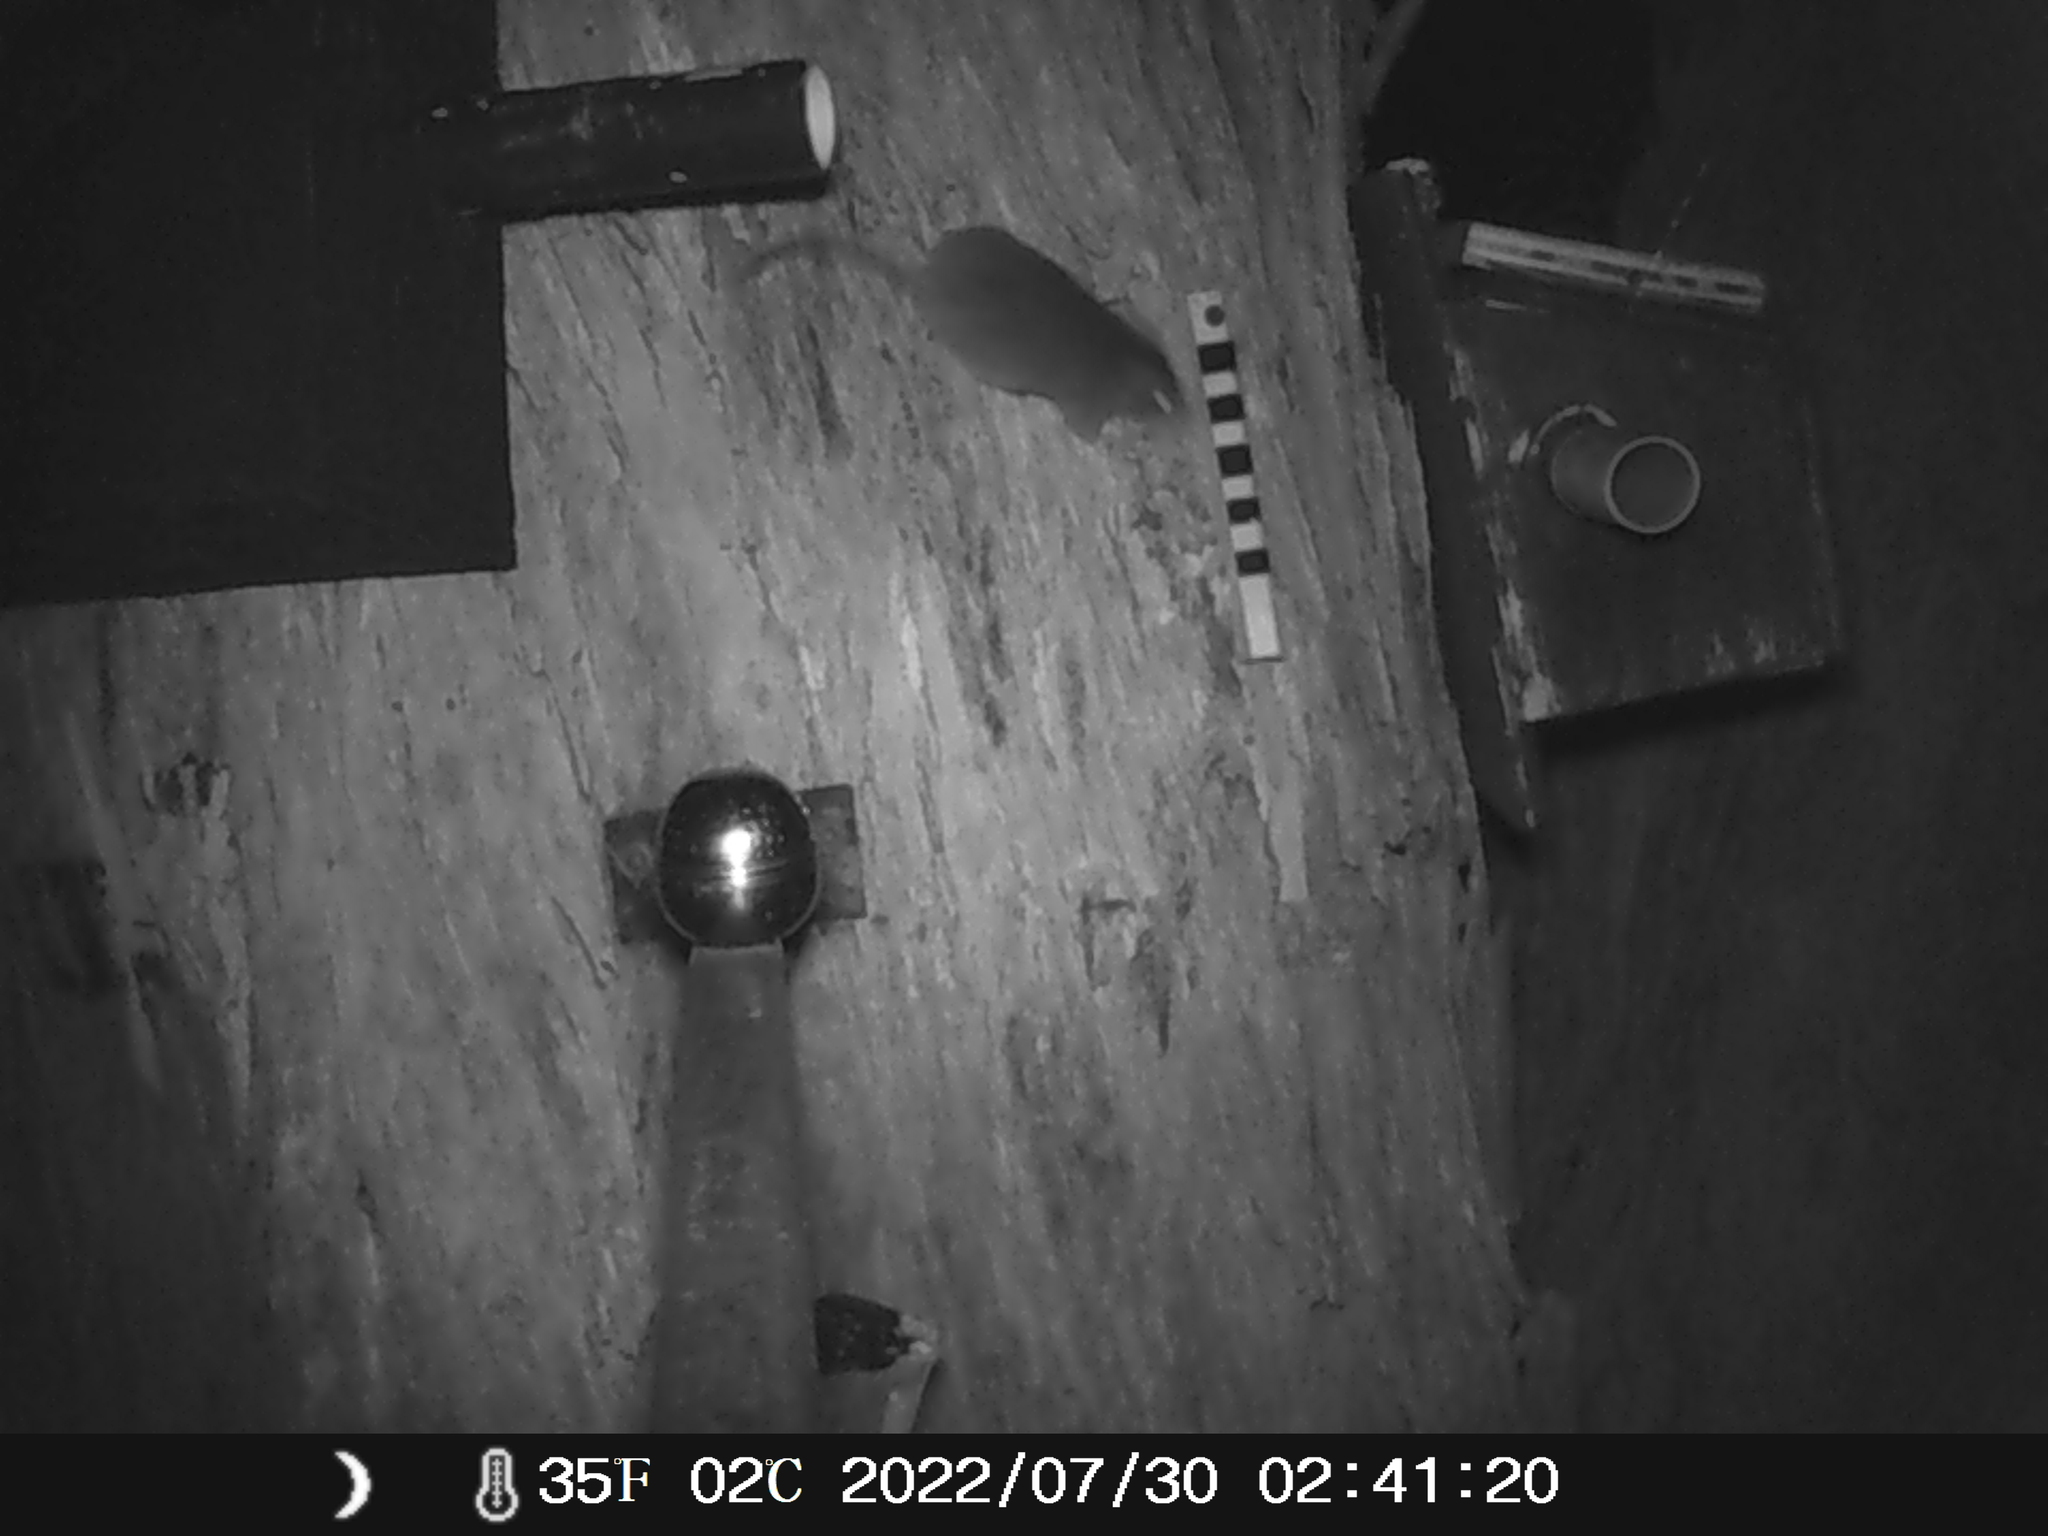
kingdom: Animalia
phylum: Chordata
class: Mammalia
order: Dasyuromorphia
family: Dasyuridae
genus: Antechinus
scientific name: Antechinus agilis
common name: Agile antechinus
